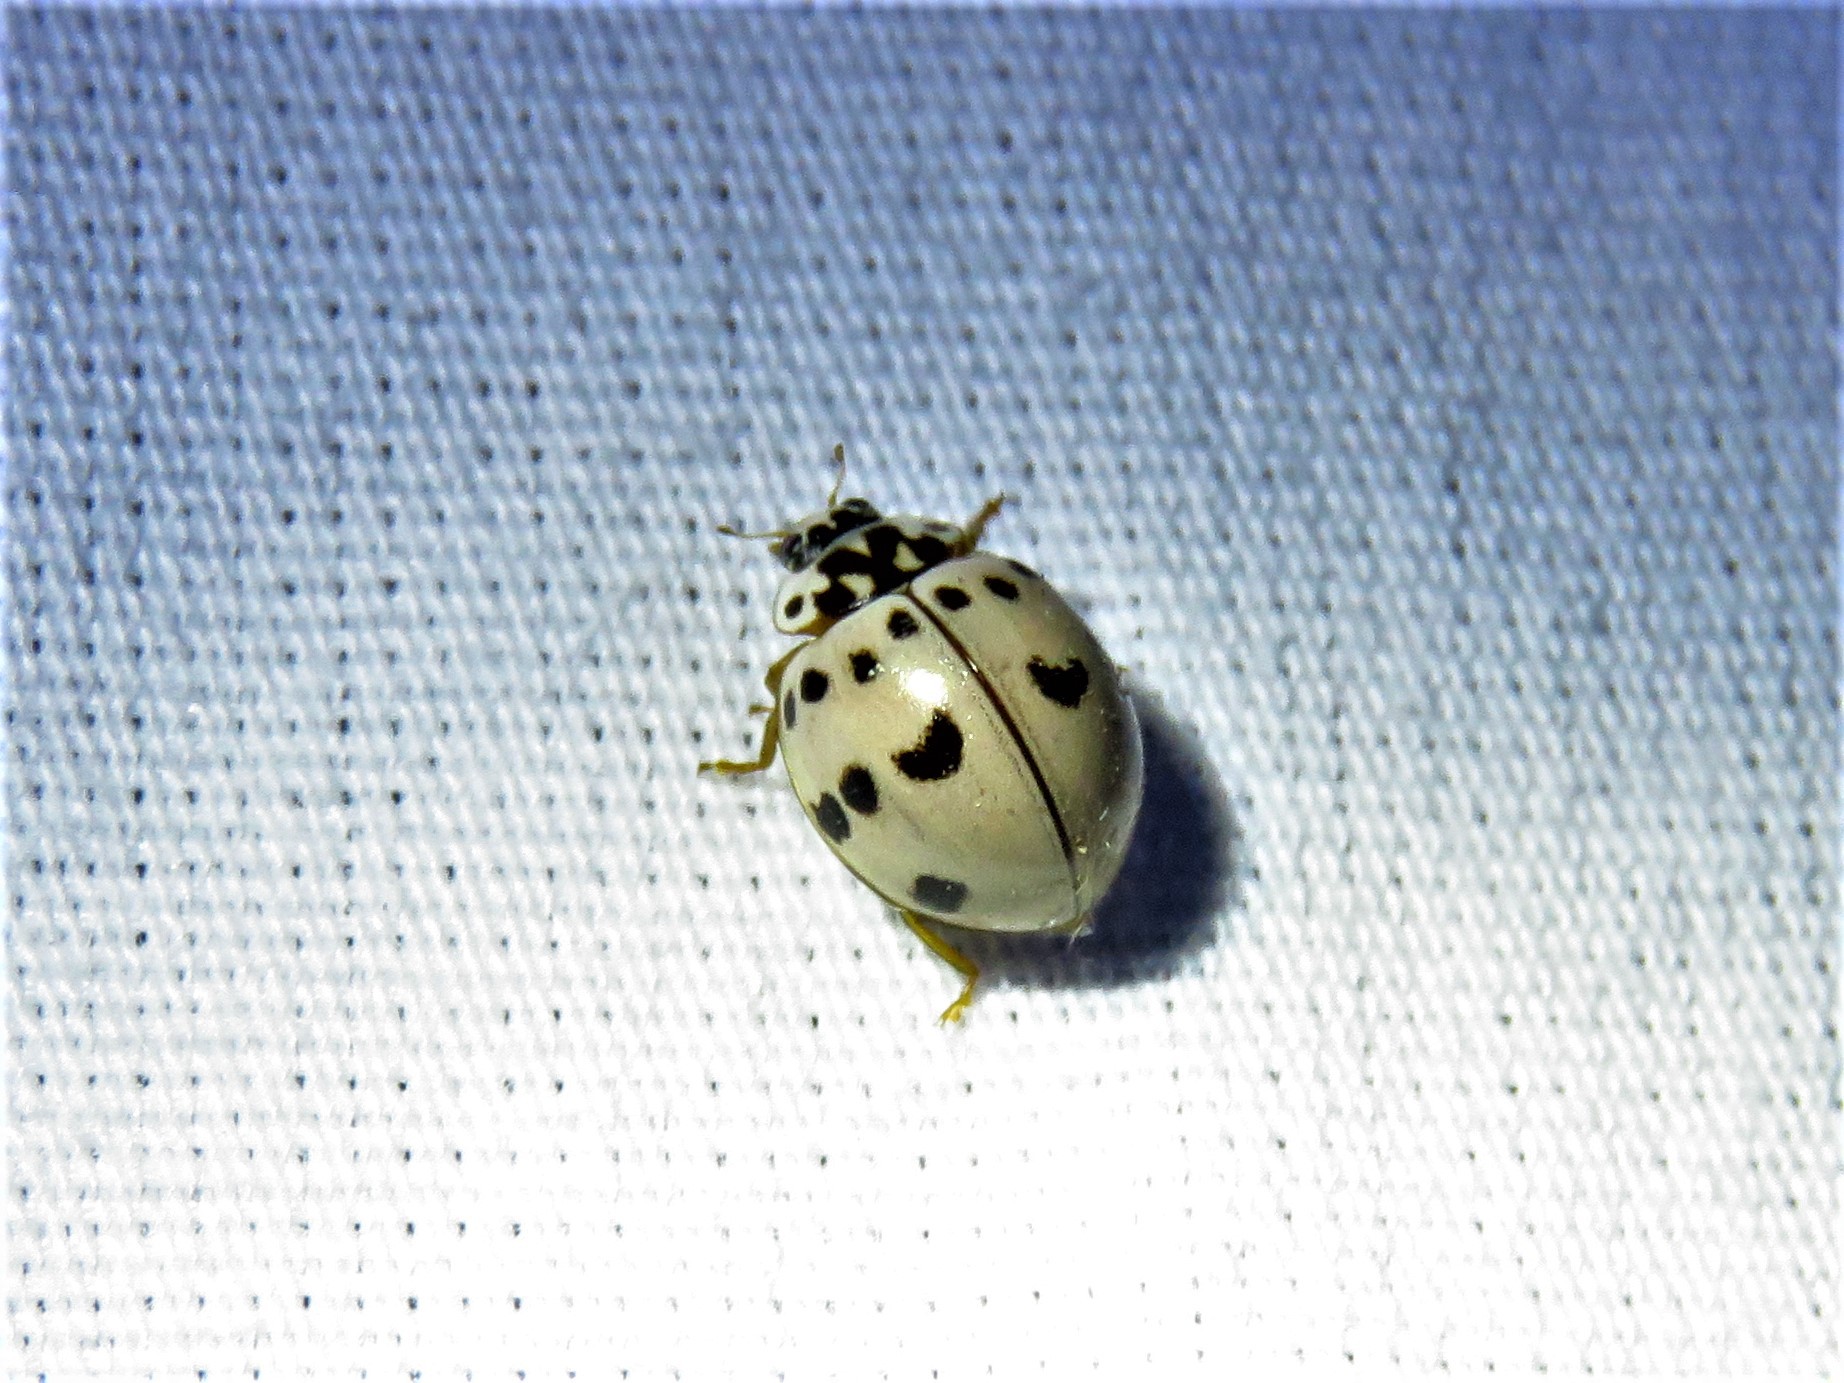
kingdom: Animalia
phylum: Arthropoda
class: Insecta
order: Coleoptera
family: Coccinellidae
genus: Olla
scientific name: Olla v-nigrum
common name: Ashy gray lady beetle
